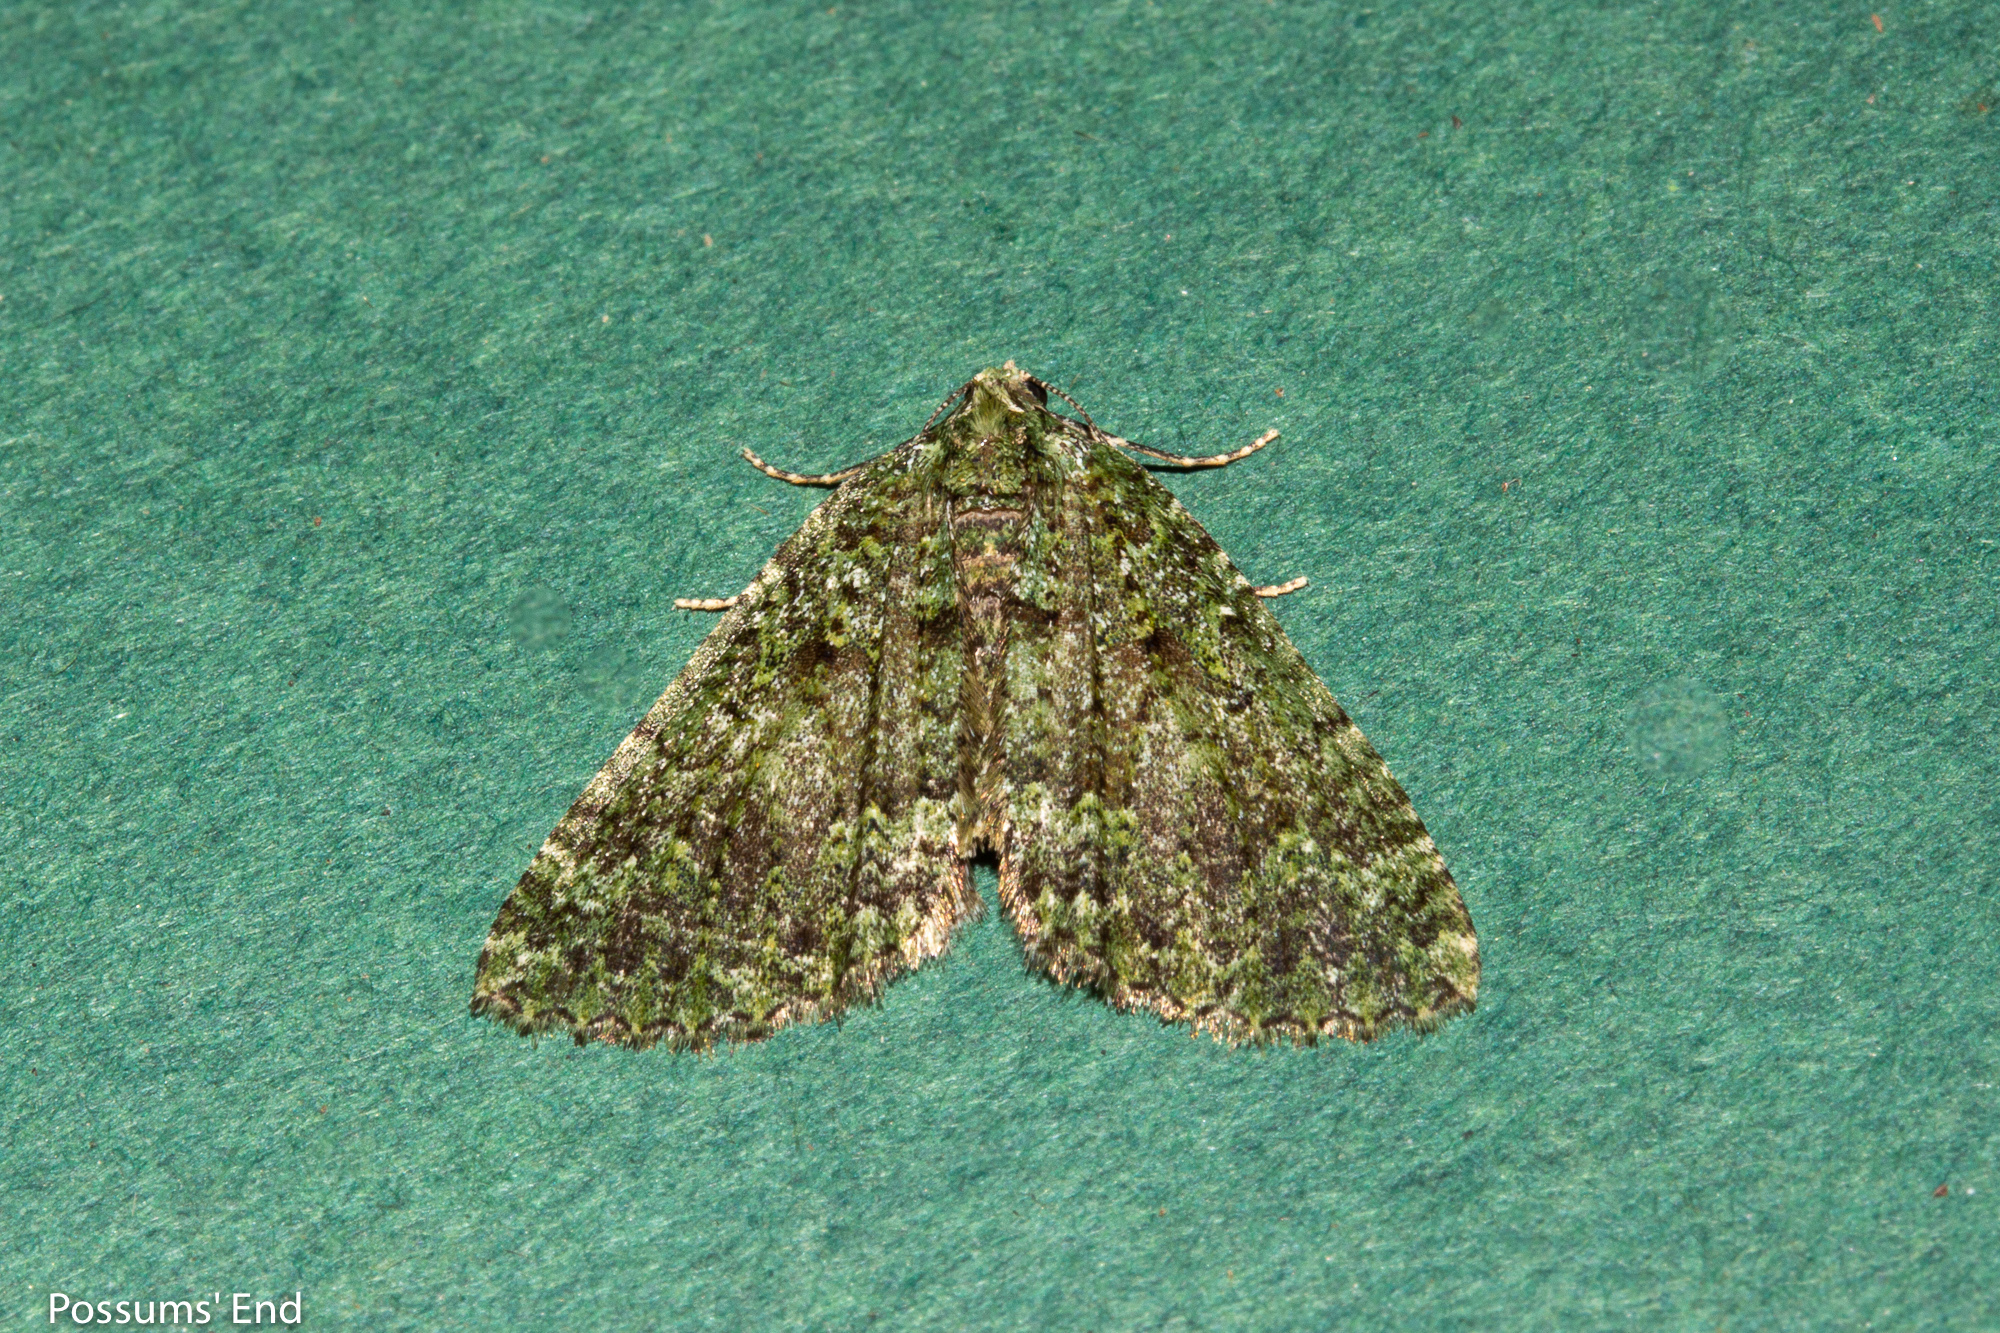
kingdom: Animalia
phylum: Arthropoda
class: Insecta
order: Lepidoptera
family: Geometridae
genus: Austrocidaria
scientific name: Austrocidaria callichlora
